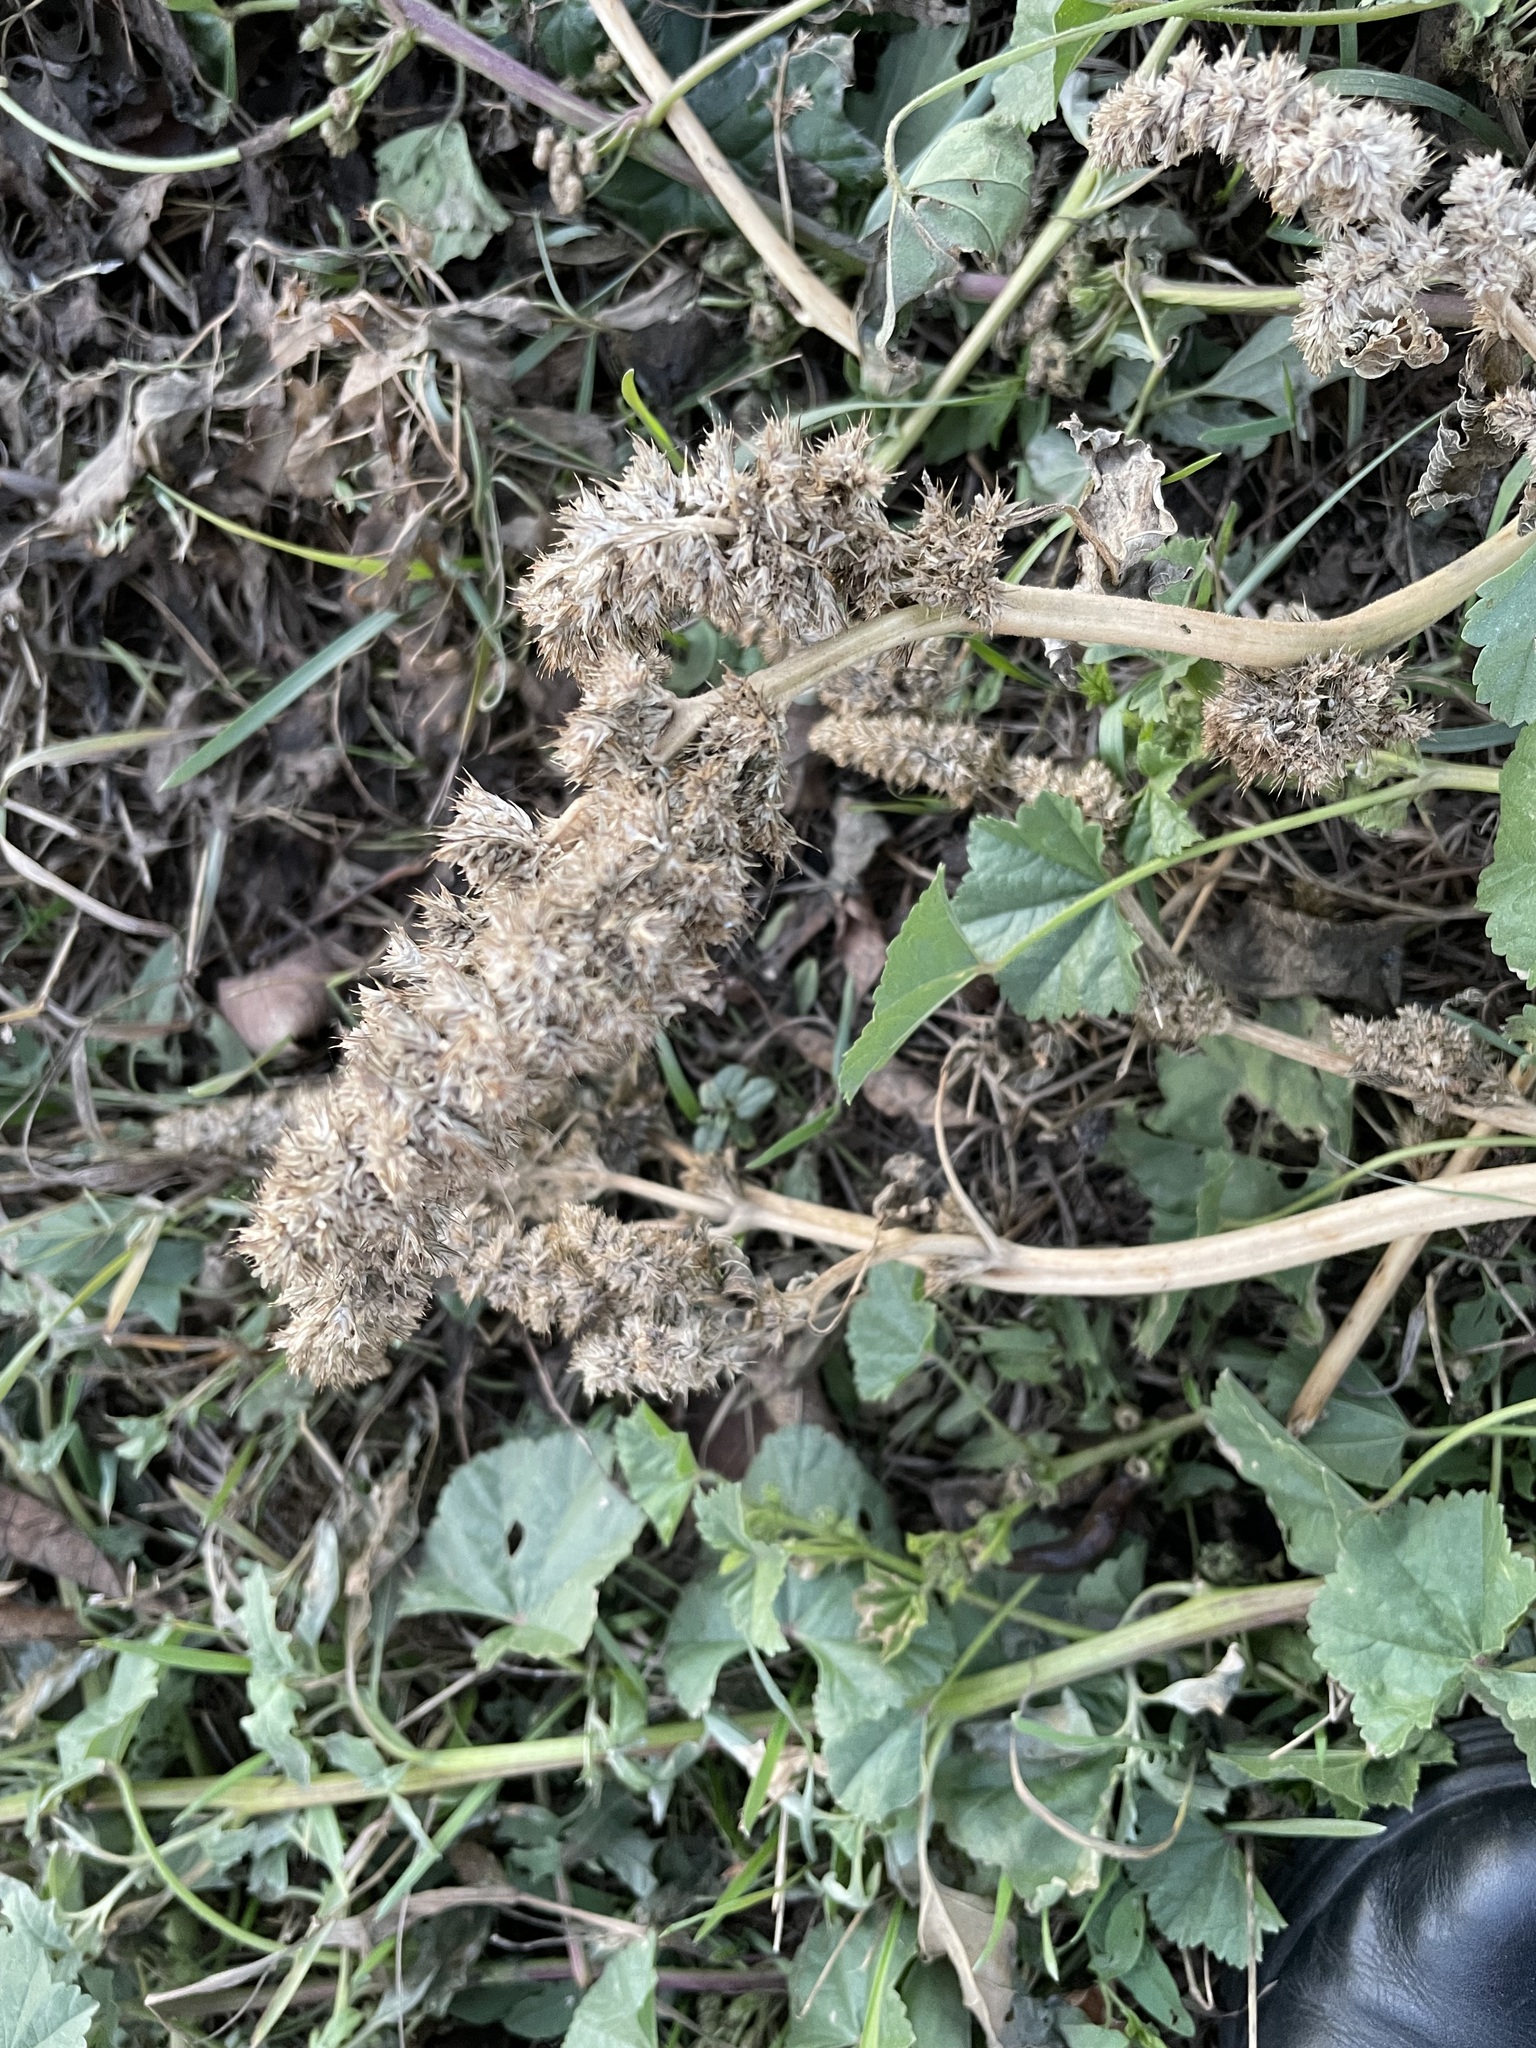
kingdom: Plantae
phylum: Tracheophyta
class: Magnoliopsida
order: Caryophyllales
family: Amaranthaceae
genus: Amaranthus
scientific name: Amaranthus retroflexus
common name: Redroot amaranth
